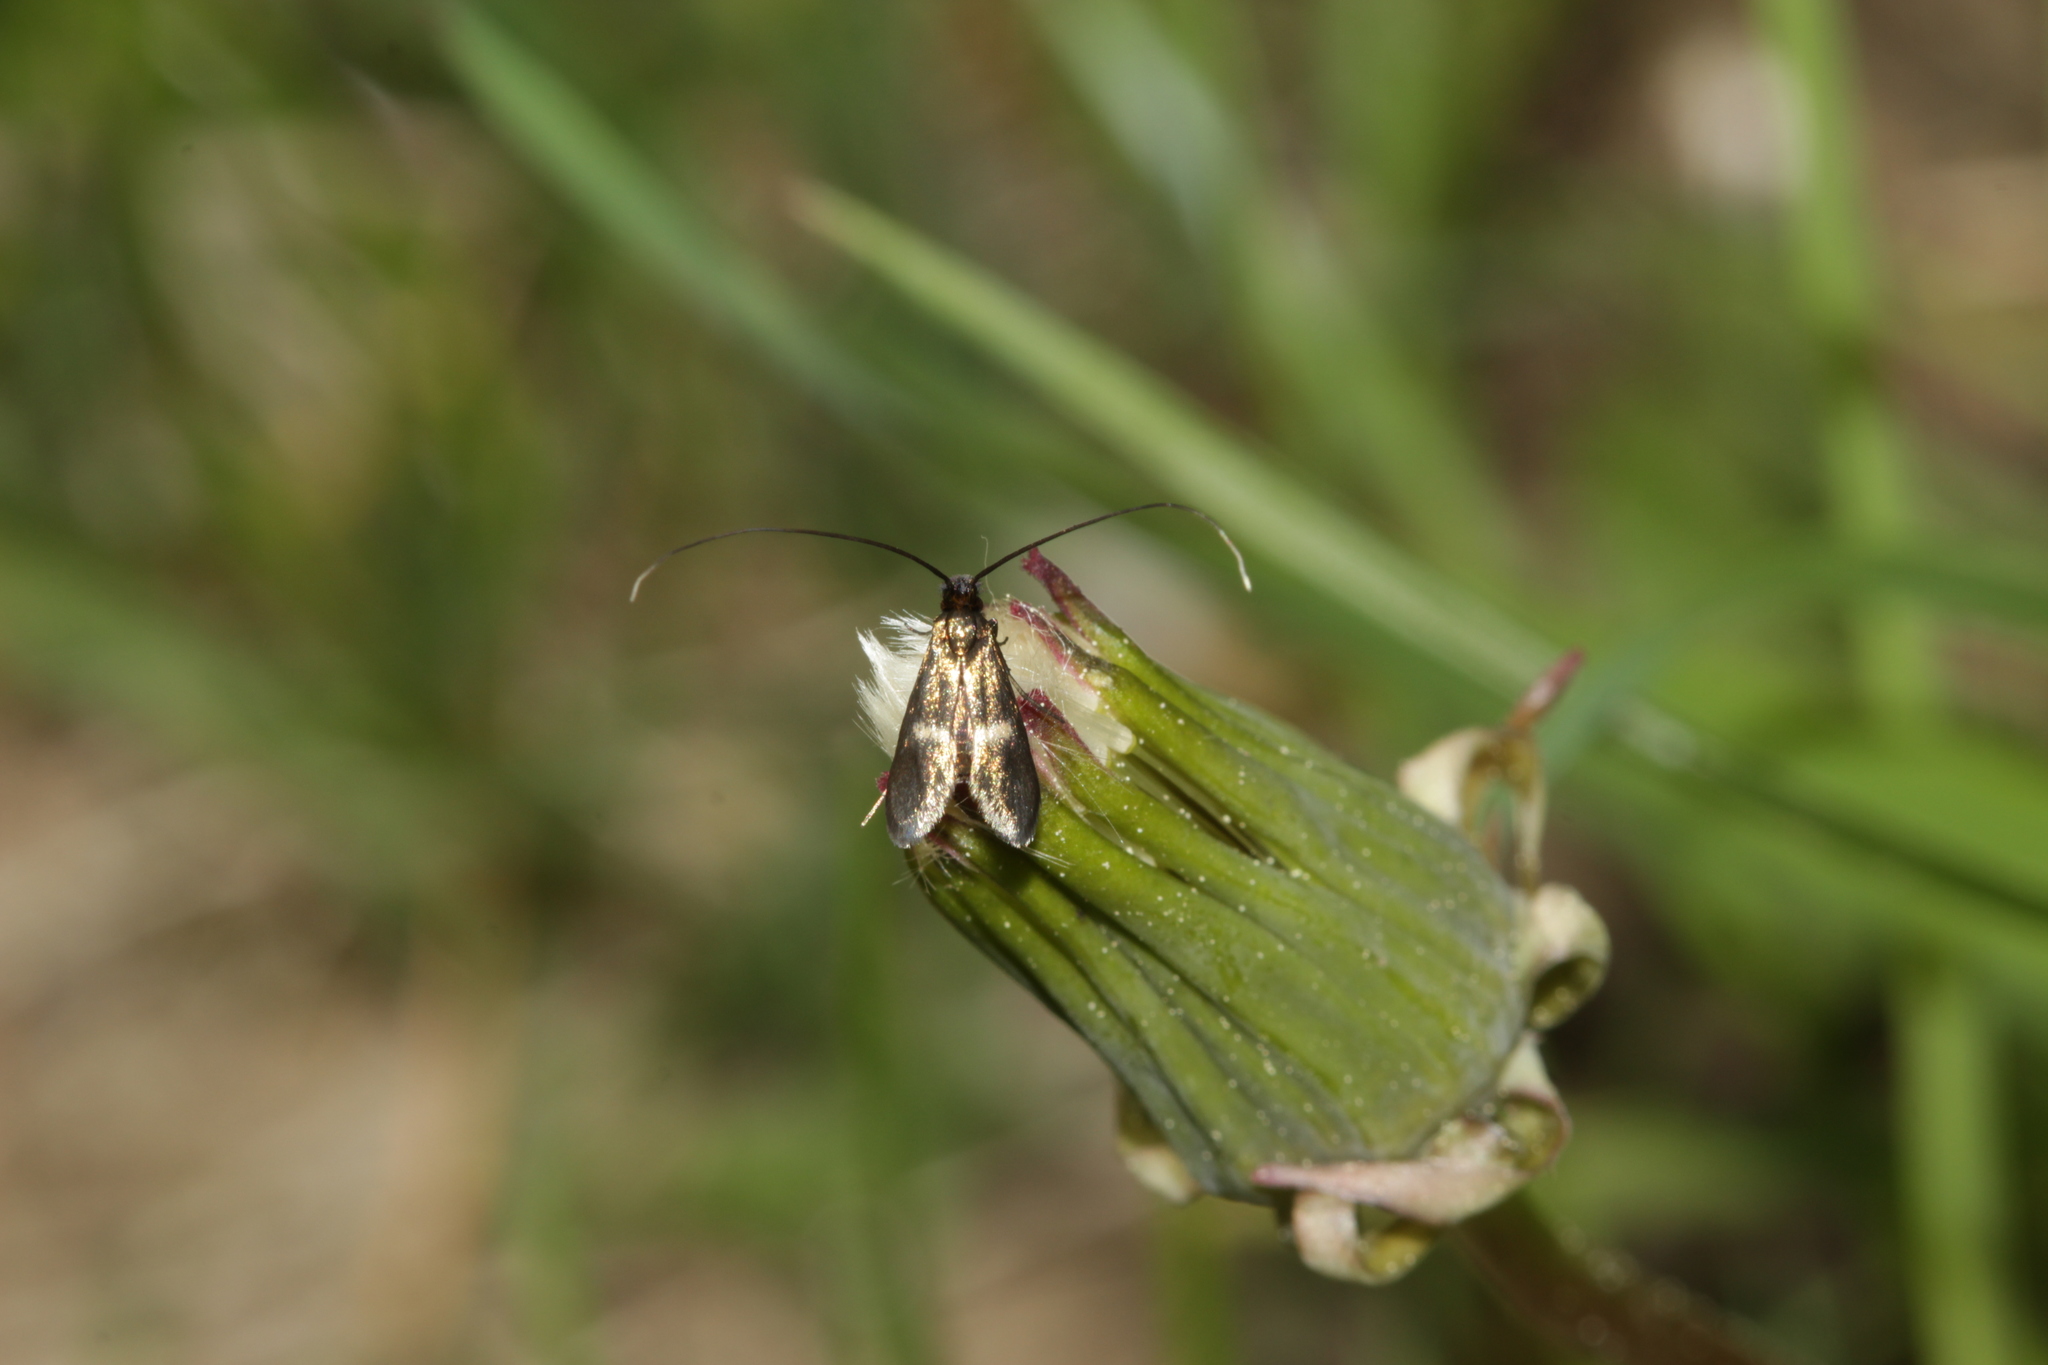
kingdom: Animalia
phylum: Arthropoda
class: Insecta
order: Lepidoptera
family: Adelidae
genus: Cauchas
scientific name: Cauchas rufimitrella
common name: Meadow long-horn
